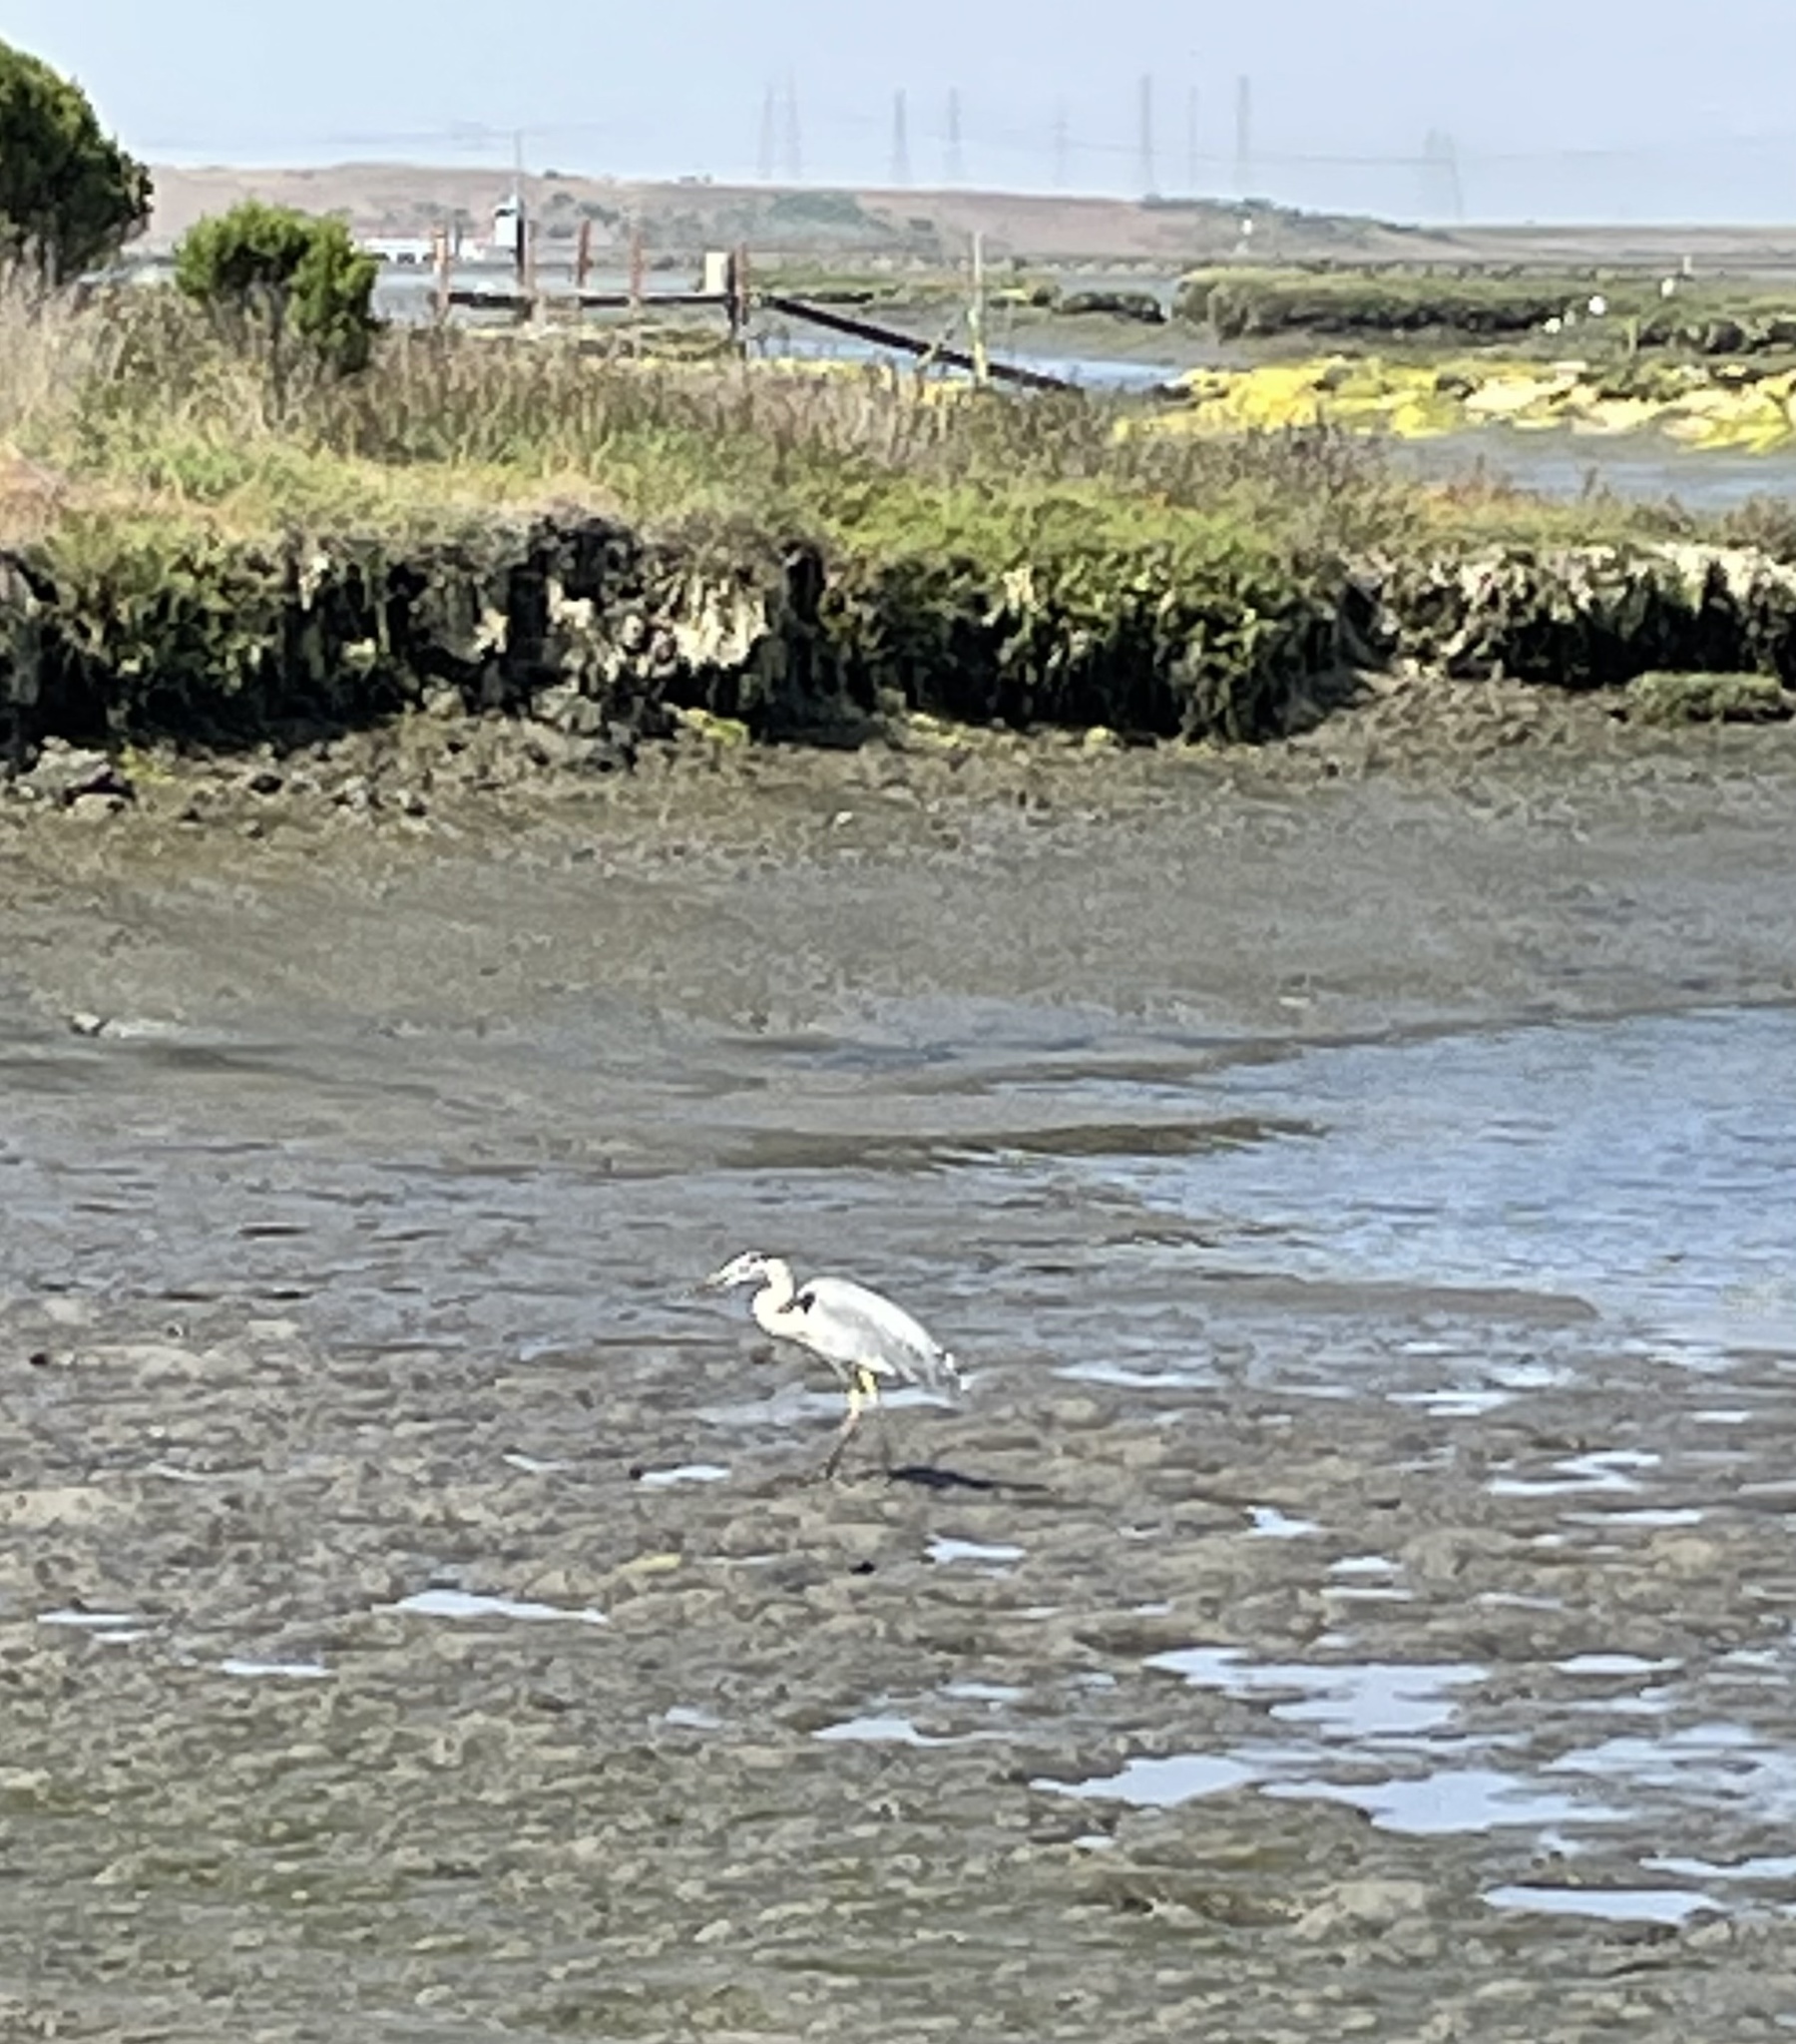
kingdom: Animalia
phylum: Chordata
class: Aves
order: Pelecaniformes
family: Ardeidae
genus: Ardea
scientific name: Ardea herodias
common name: Great blue heron
